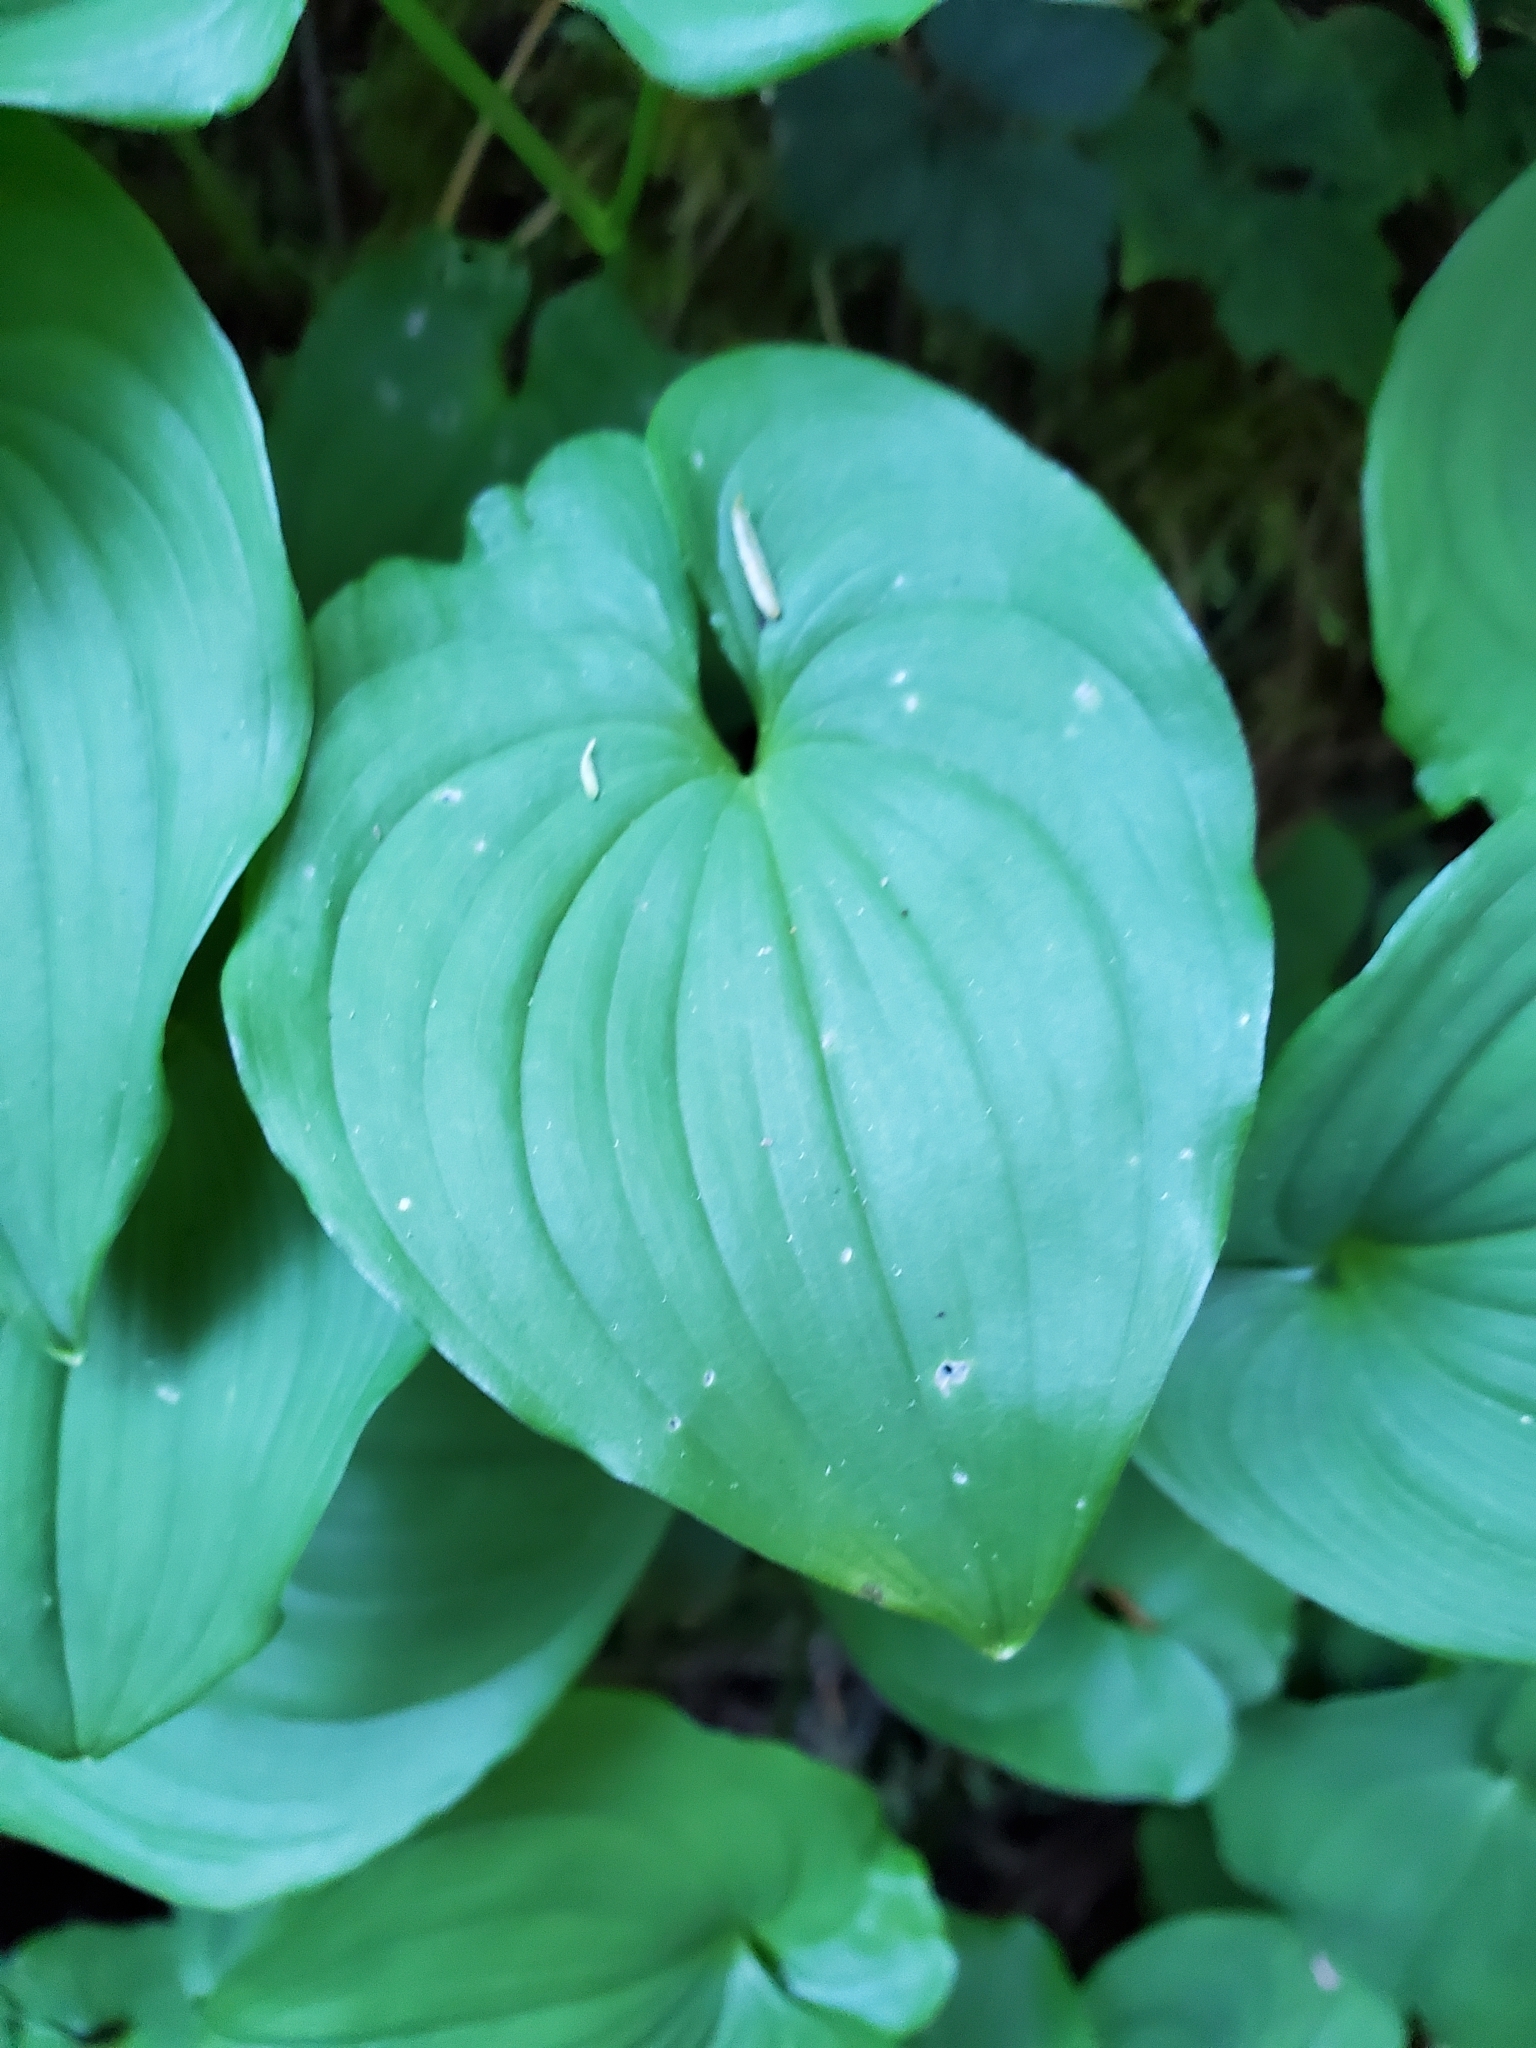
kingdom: Plantae
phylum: Tracheophyta
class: Liliopsida
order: Asparagales
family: Asparagaceae
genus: Maianthemum
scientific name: Maianthemum dilatatum
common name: False lily-of-the-valley
